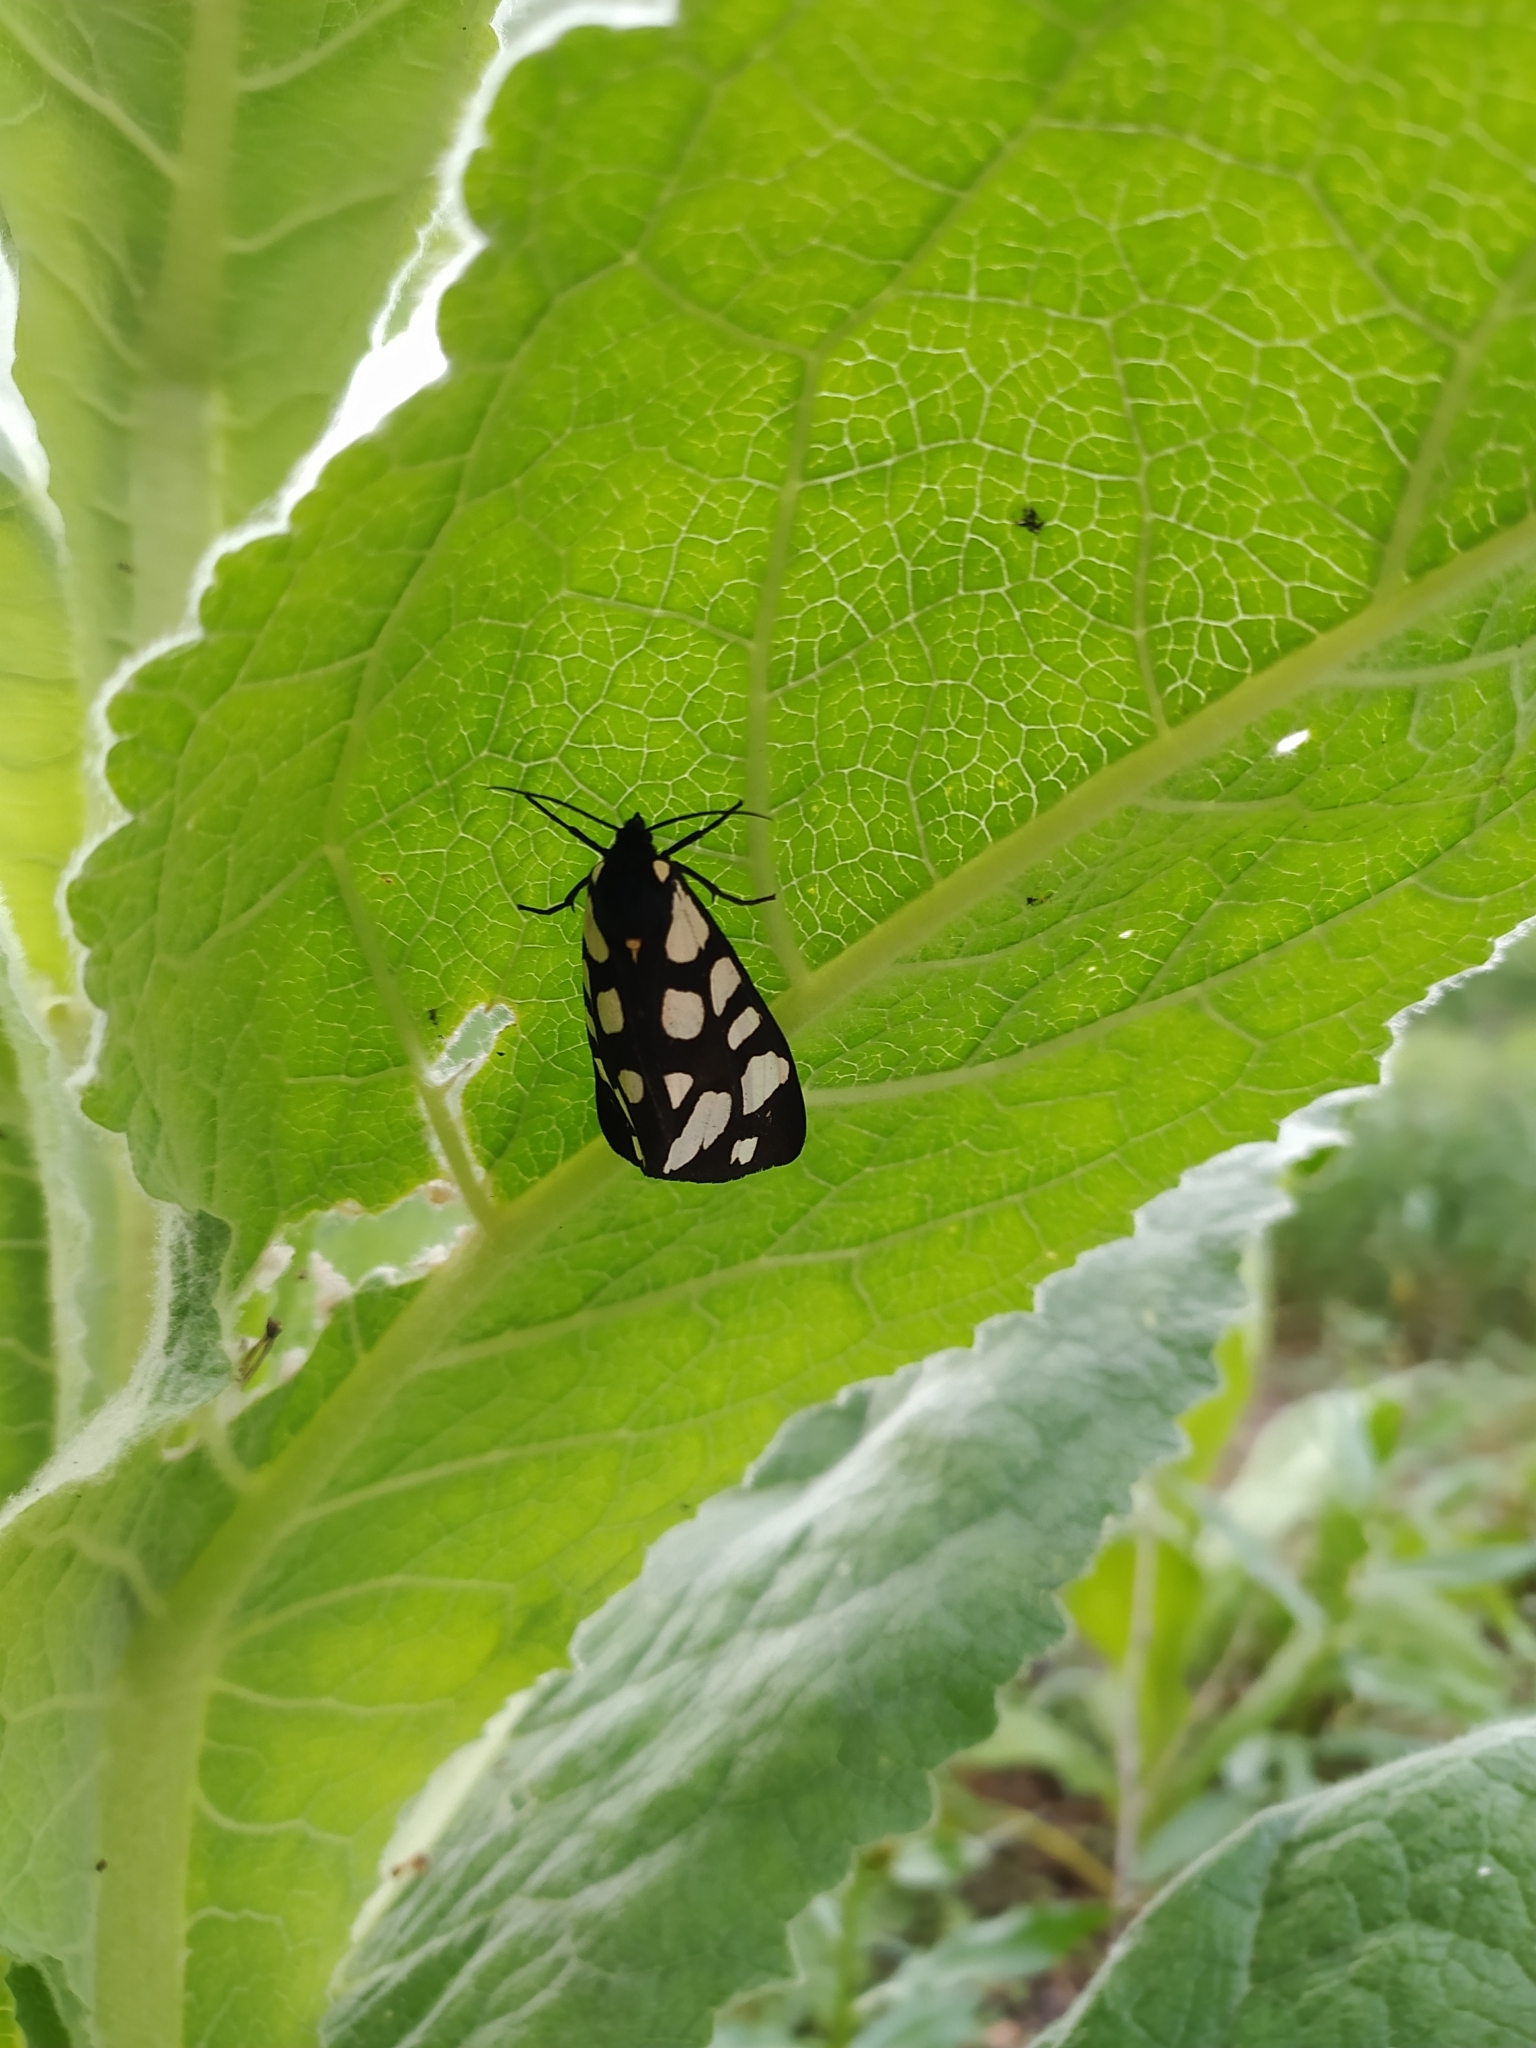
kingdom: Animalia
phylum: Arthropoda
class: Insecta
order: Lepidoptera
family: Erebidae
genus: Epicallia
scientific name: Epicallia villica
